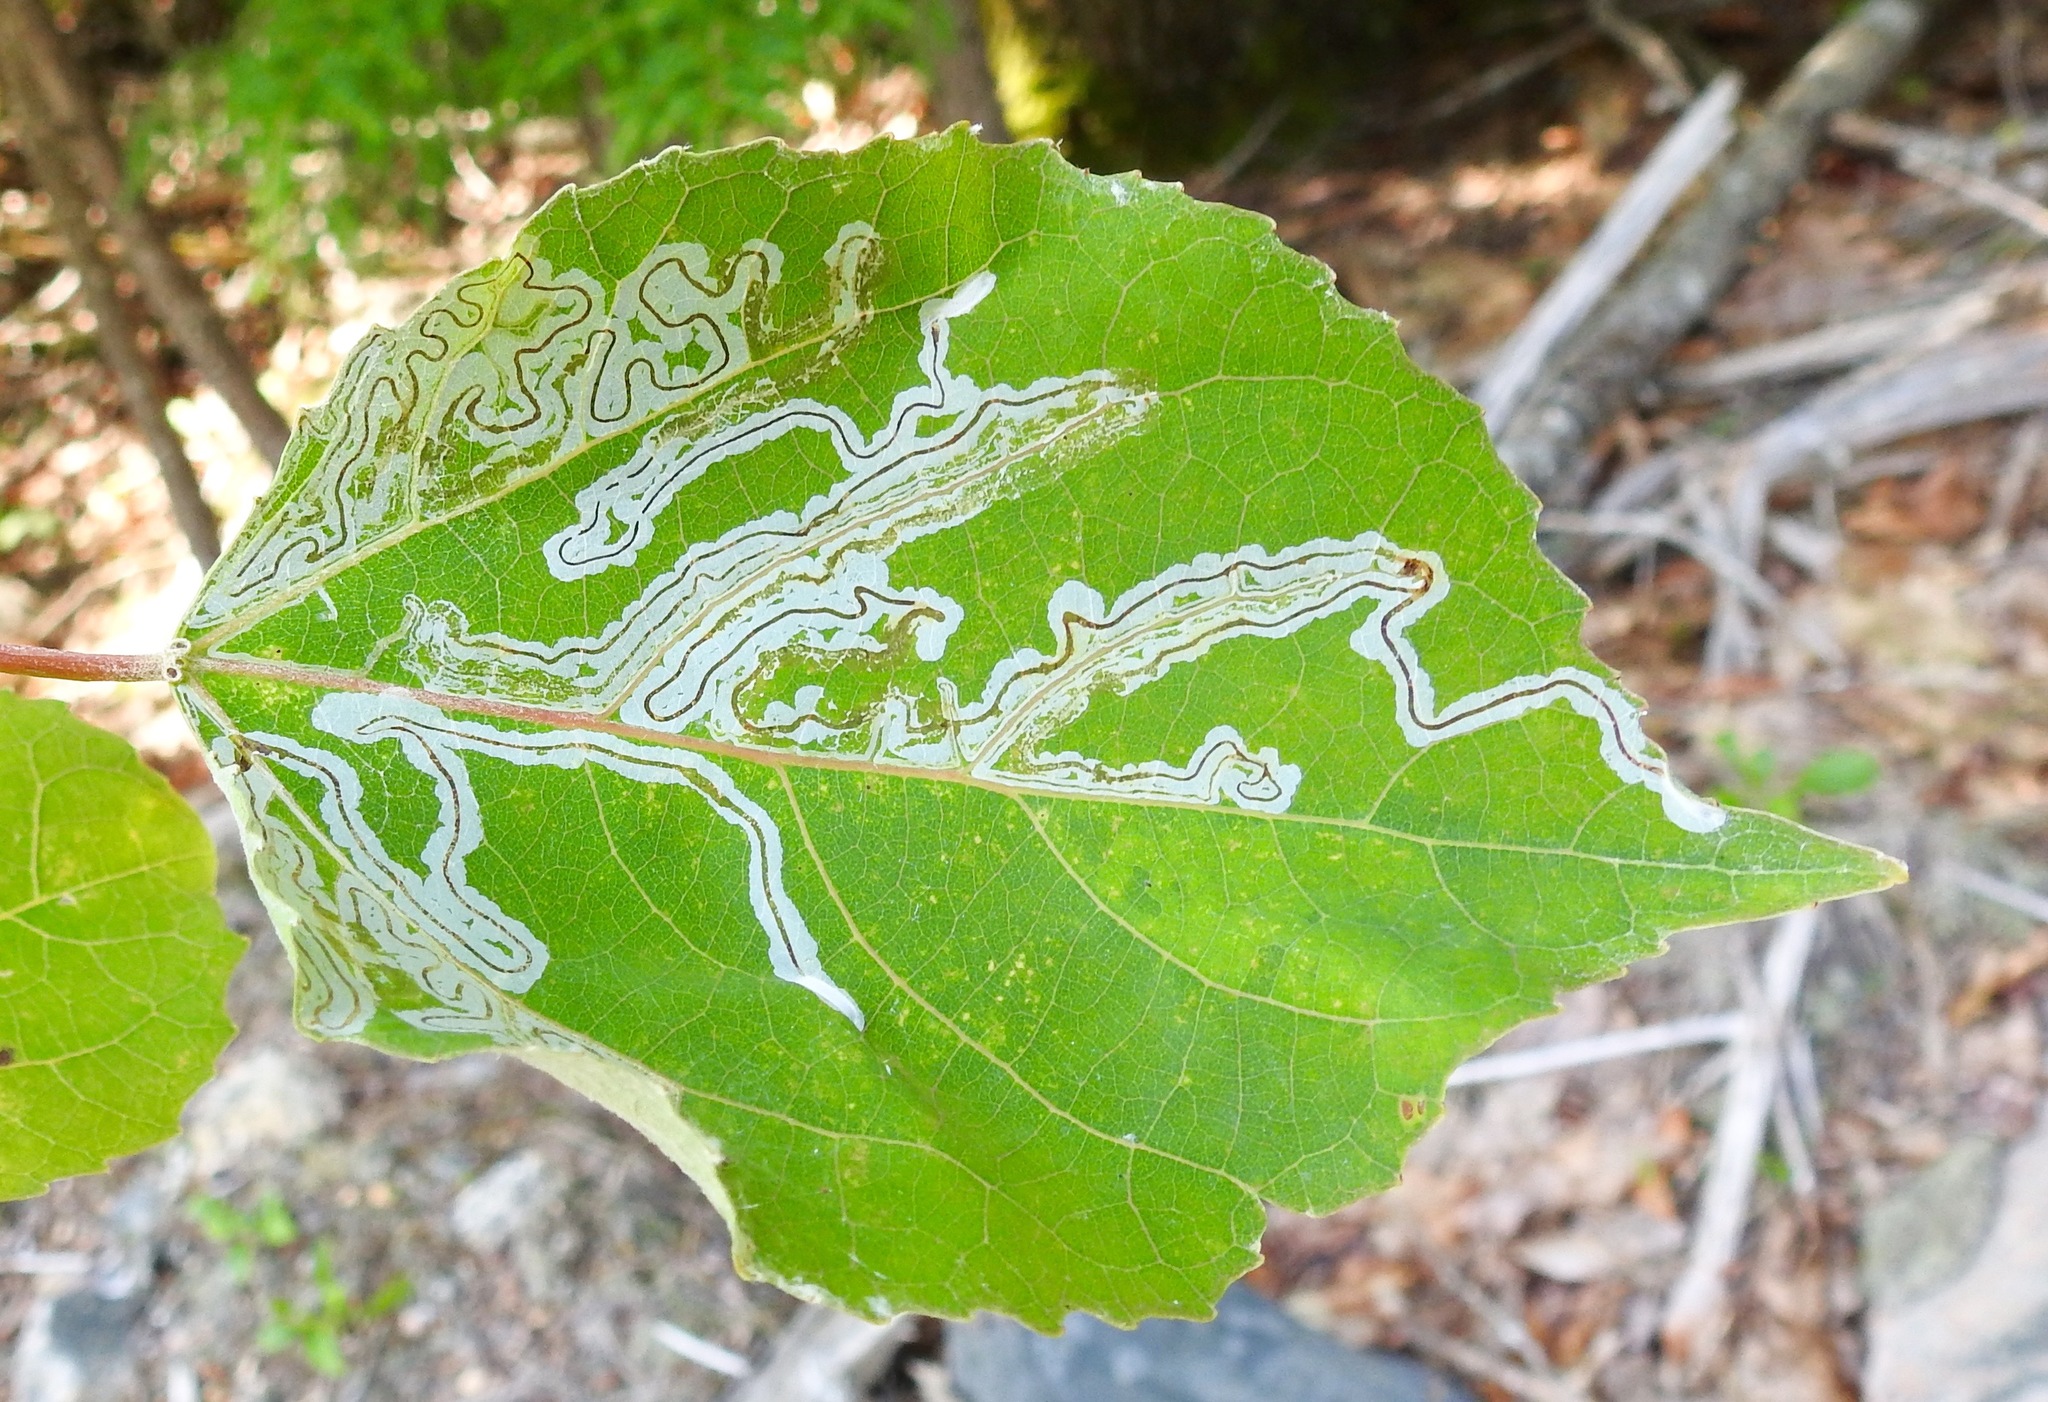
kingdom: Animalia
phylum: Arthropoda
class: Insecta
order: Lepidoptera
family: Gracillariidae
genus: Phyllocnistis
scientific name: Phyllocnistis populiella
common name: Aspen serpentine leafminer moth
